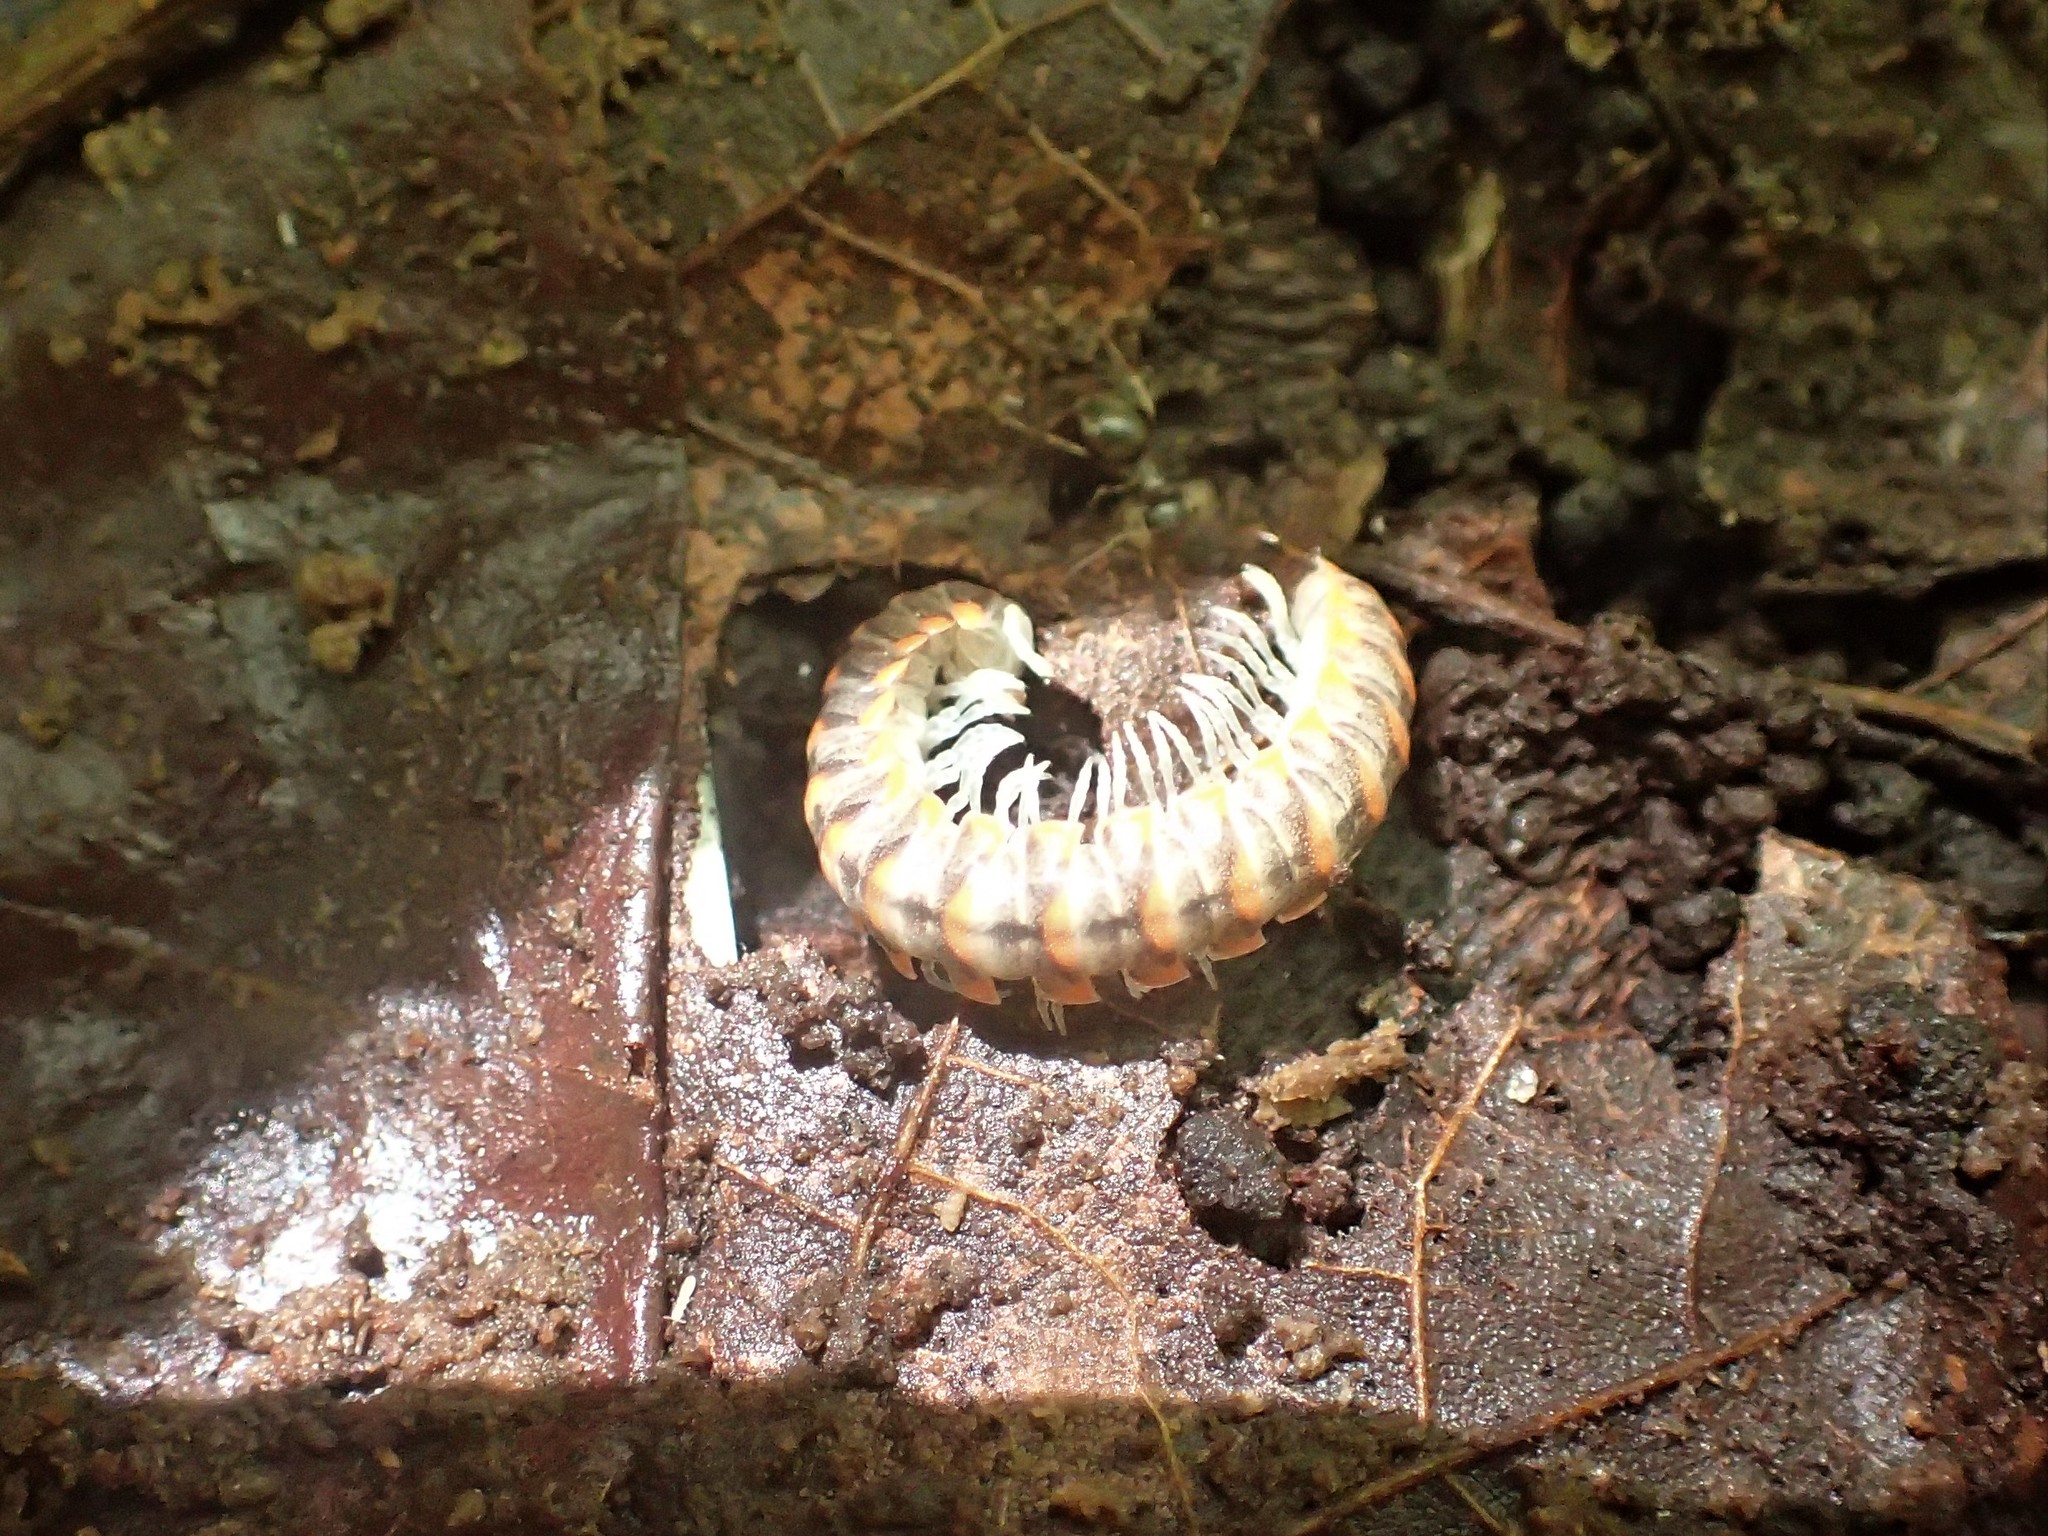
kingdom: Animalia
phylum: Arthropoda
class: Diplopoda
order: Polydesmida
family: Xystodesmidae
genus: Euryurus
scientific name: Euryurus leachii
